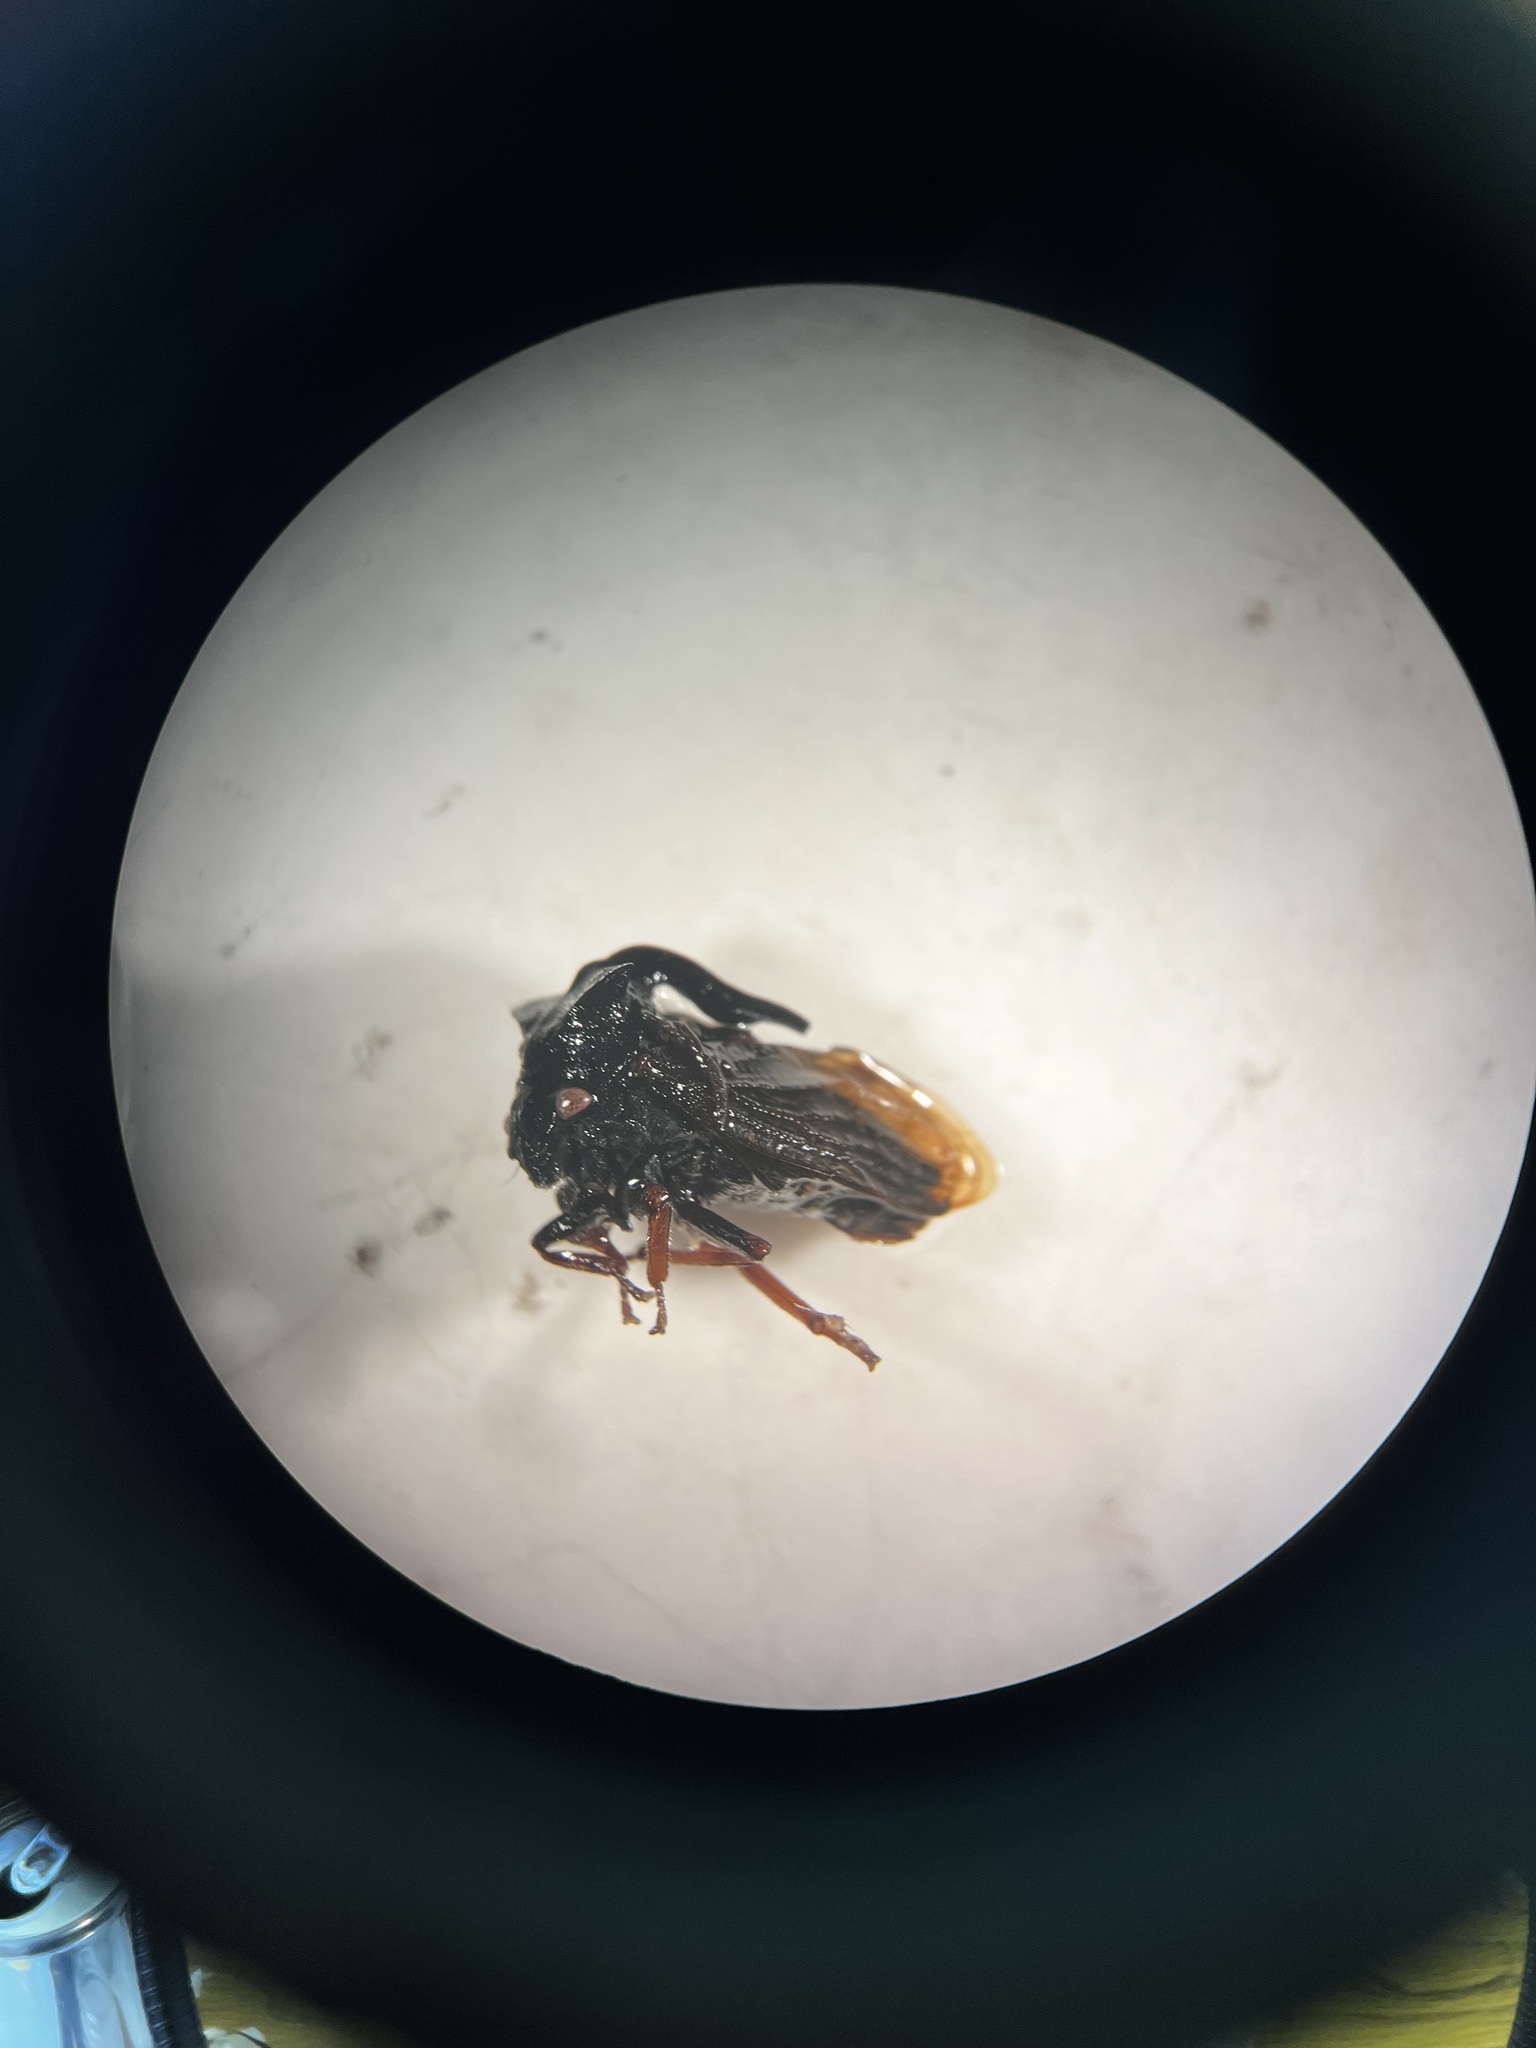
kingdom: Animalia
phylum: Arthropoda
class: Insecta
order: Hemiptera
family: Membracidae
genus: Centrotus
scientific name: Centrotus cornuta
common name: Treehopper
